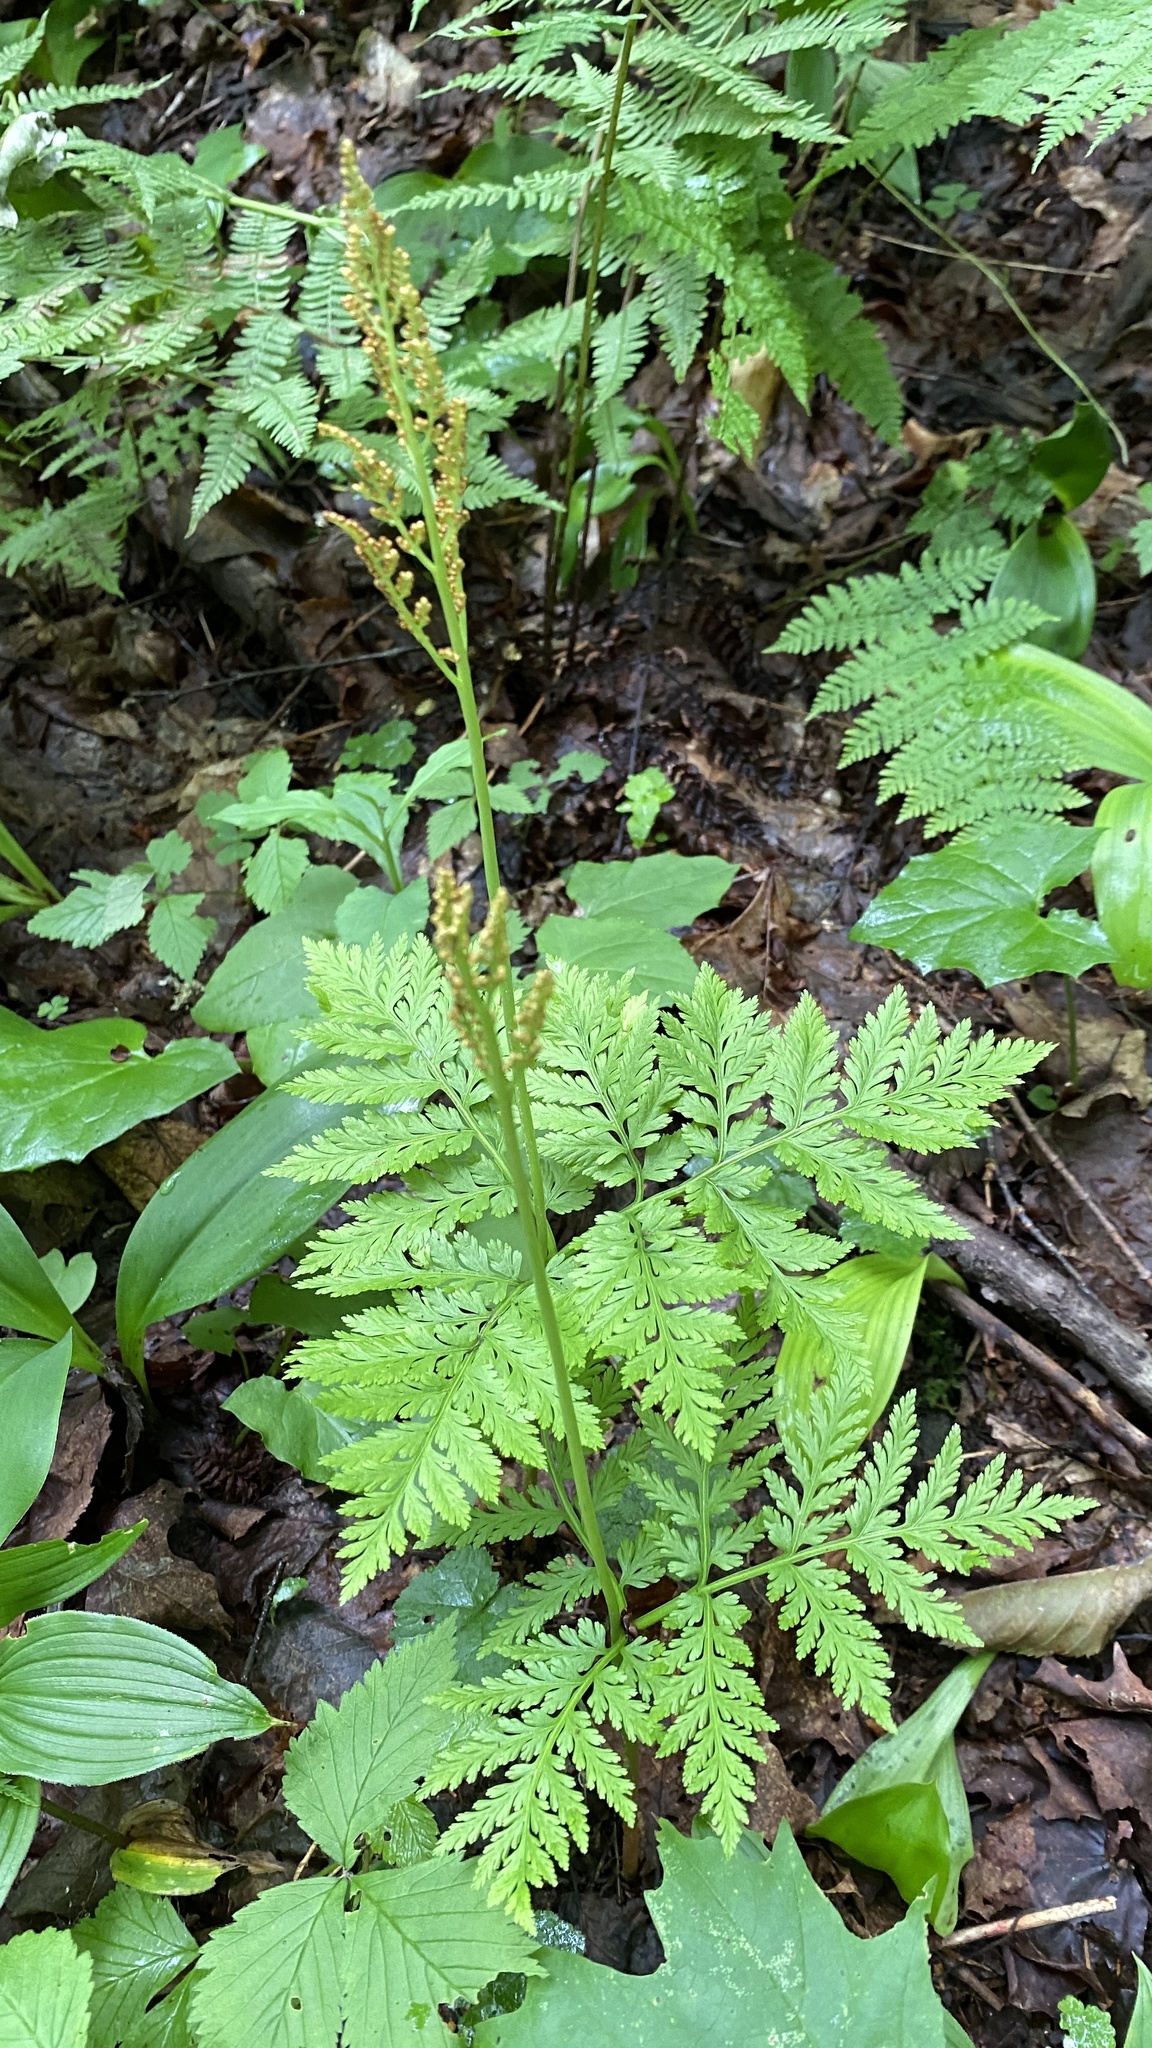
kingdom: Plantae
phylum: Tracheophyta
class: Polypodiopsida
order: Ophioglossales
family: Ophioglossaceae
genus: Botrypus
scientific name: Botrypus virginianus
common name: Common grapefern
